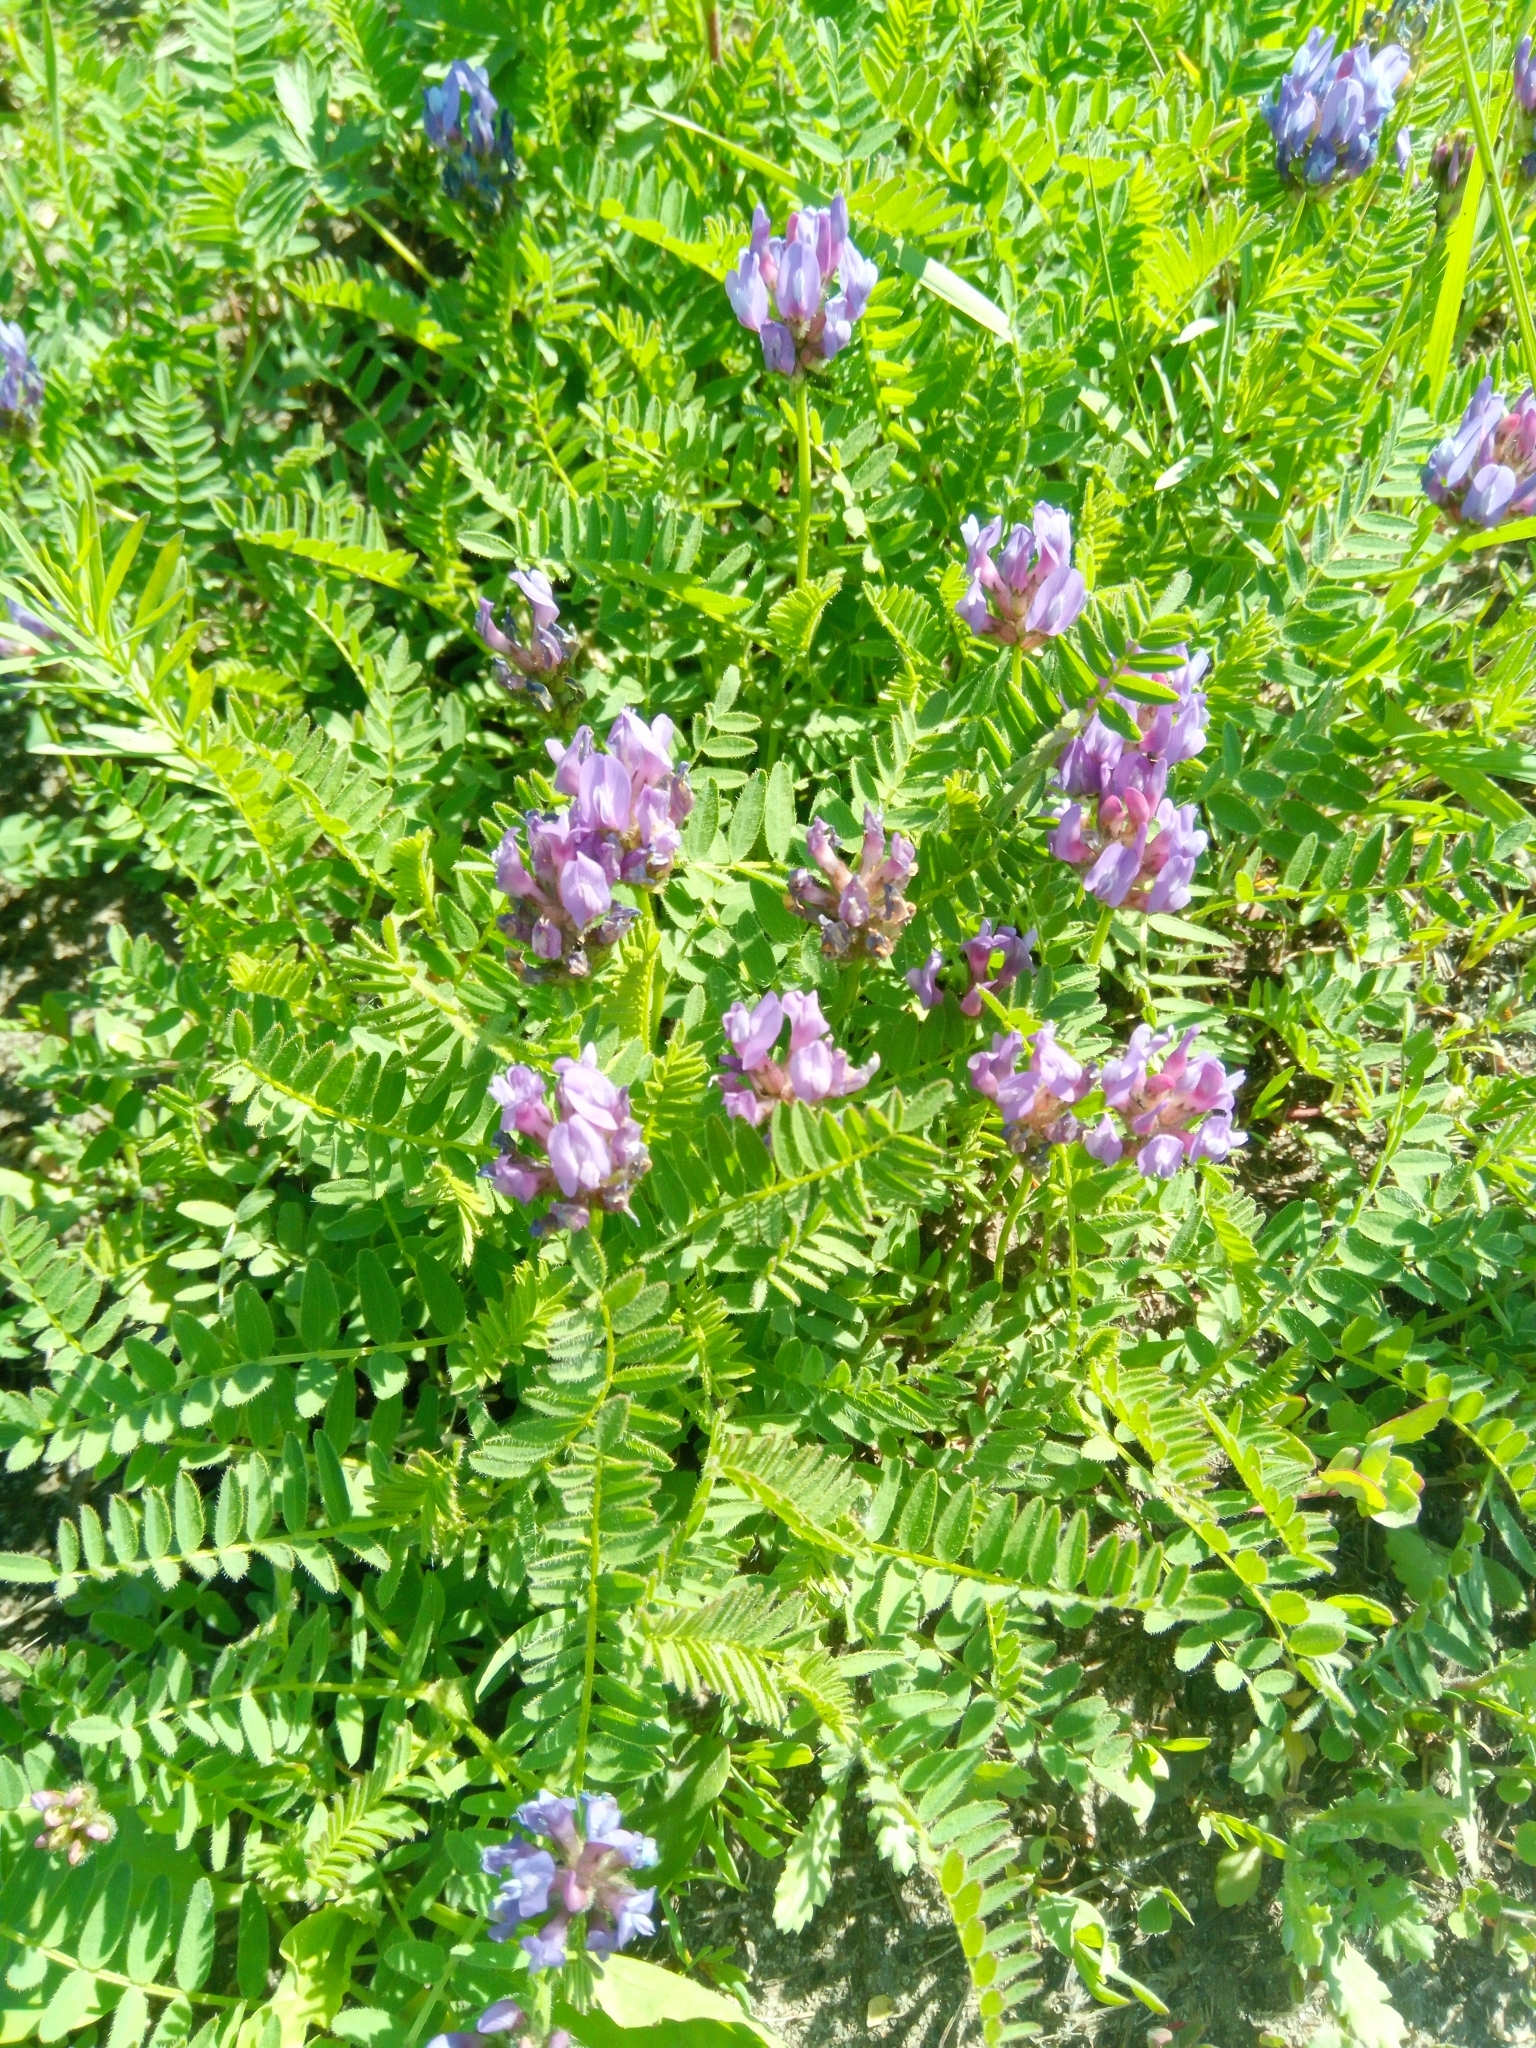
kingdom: Plantae
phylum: Tracheophyta
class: Magnoliopsida
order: Fabales
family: Fabaceae
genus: Astragalus
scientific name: Astragalus danicus
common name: Purple milk-vetch
